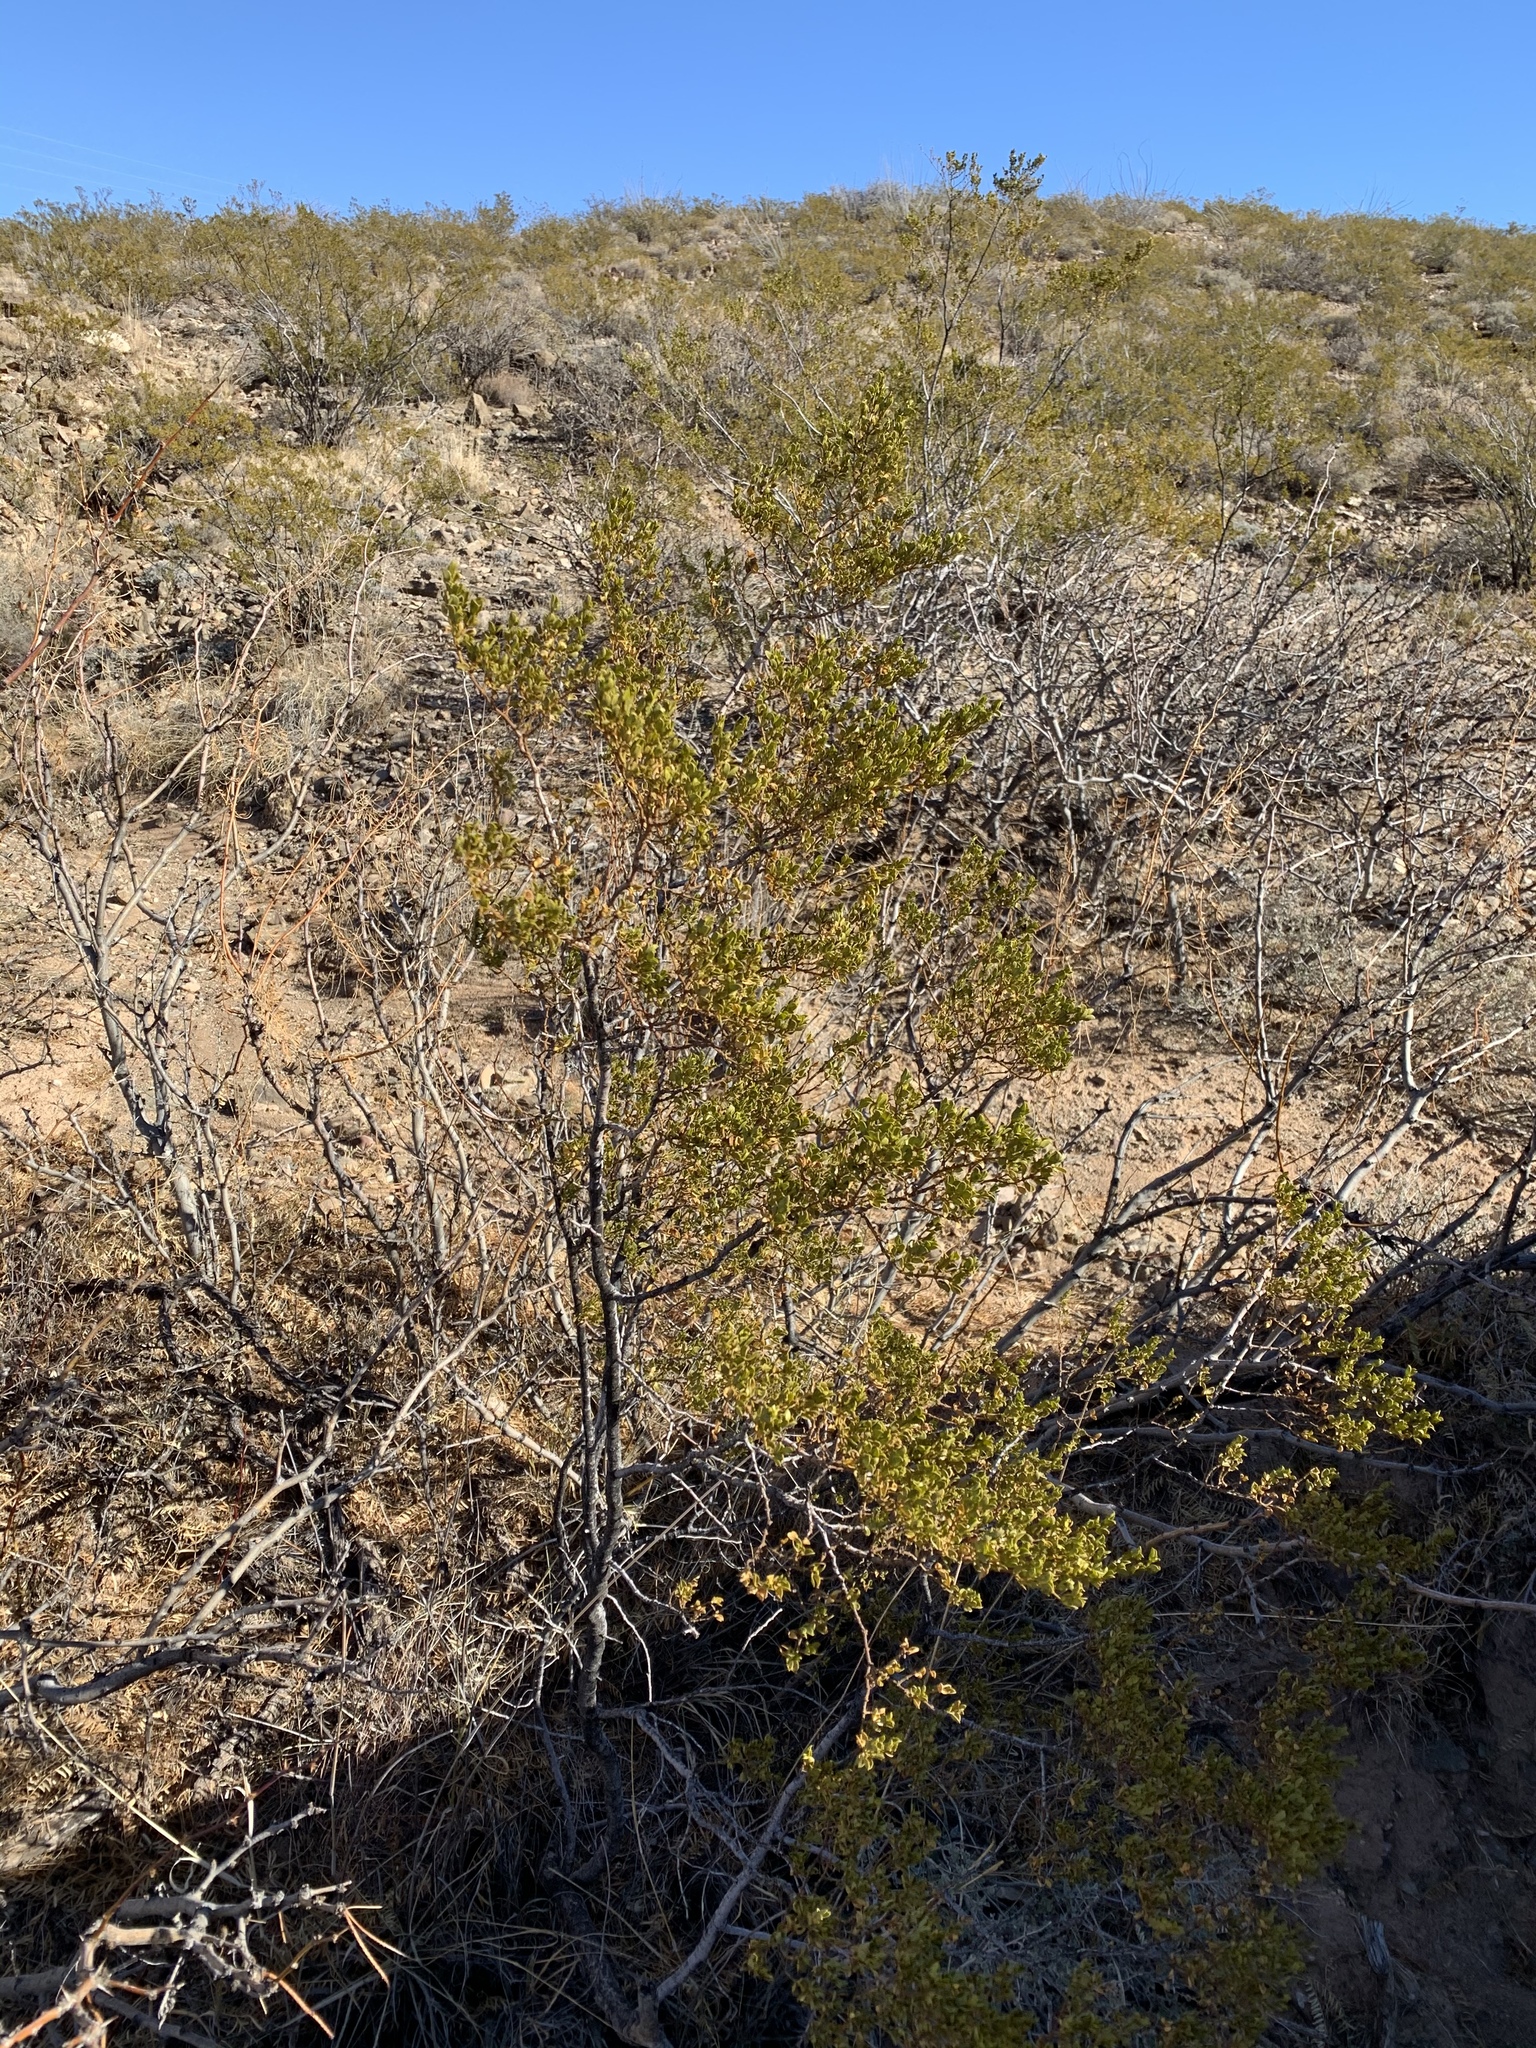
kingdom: Plantae
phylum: Tracheophyta
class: Magnoliopsida
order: Zygophyllales
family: Zygophyllaceae
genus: Larrea
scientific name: Larrea tridentata
